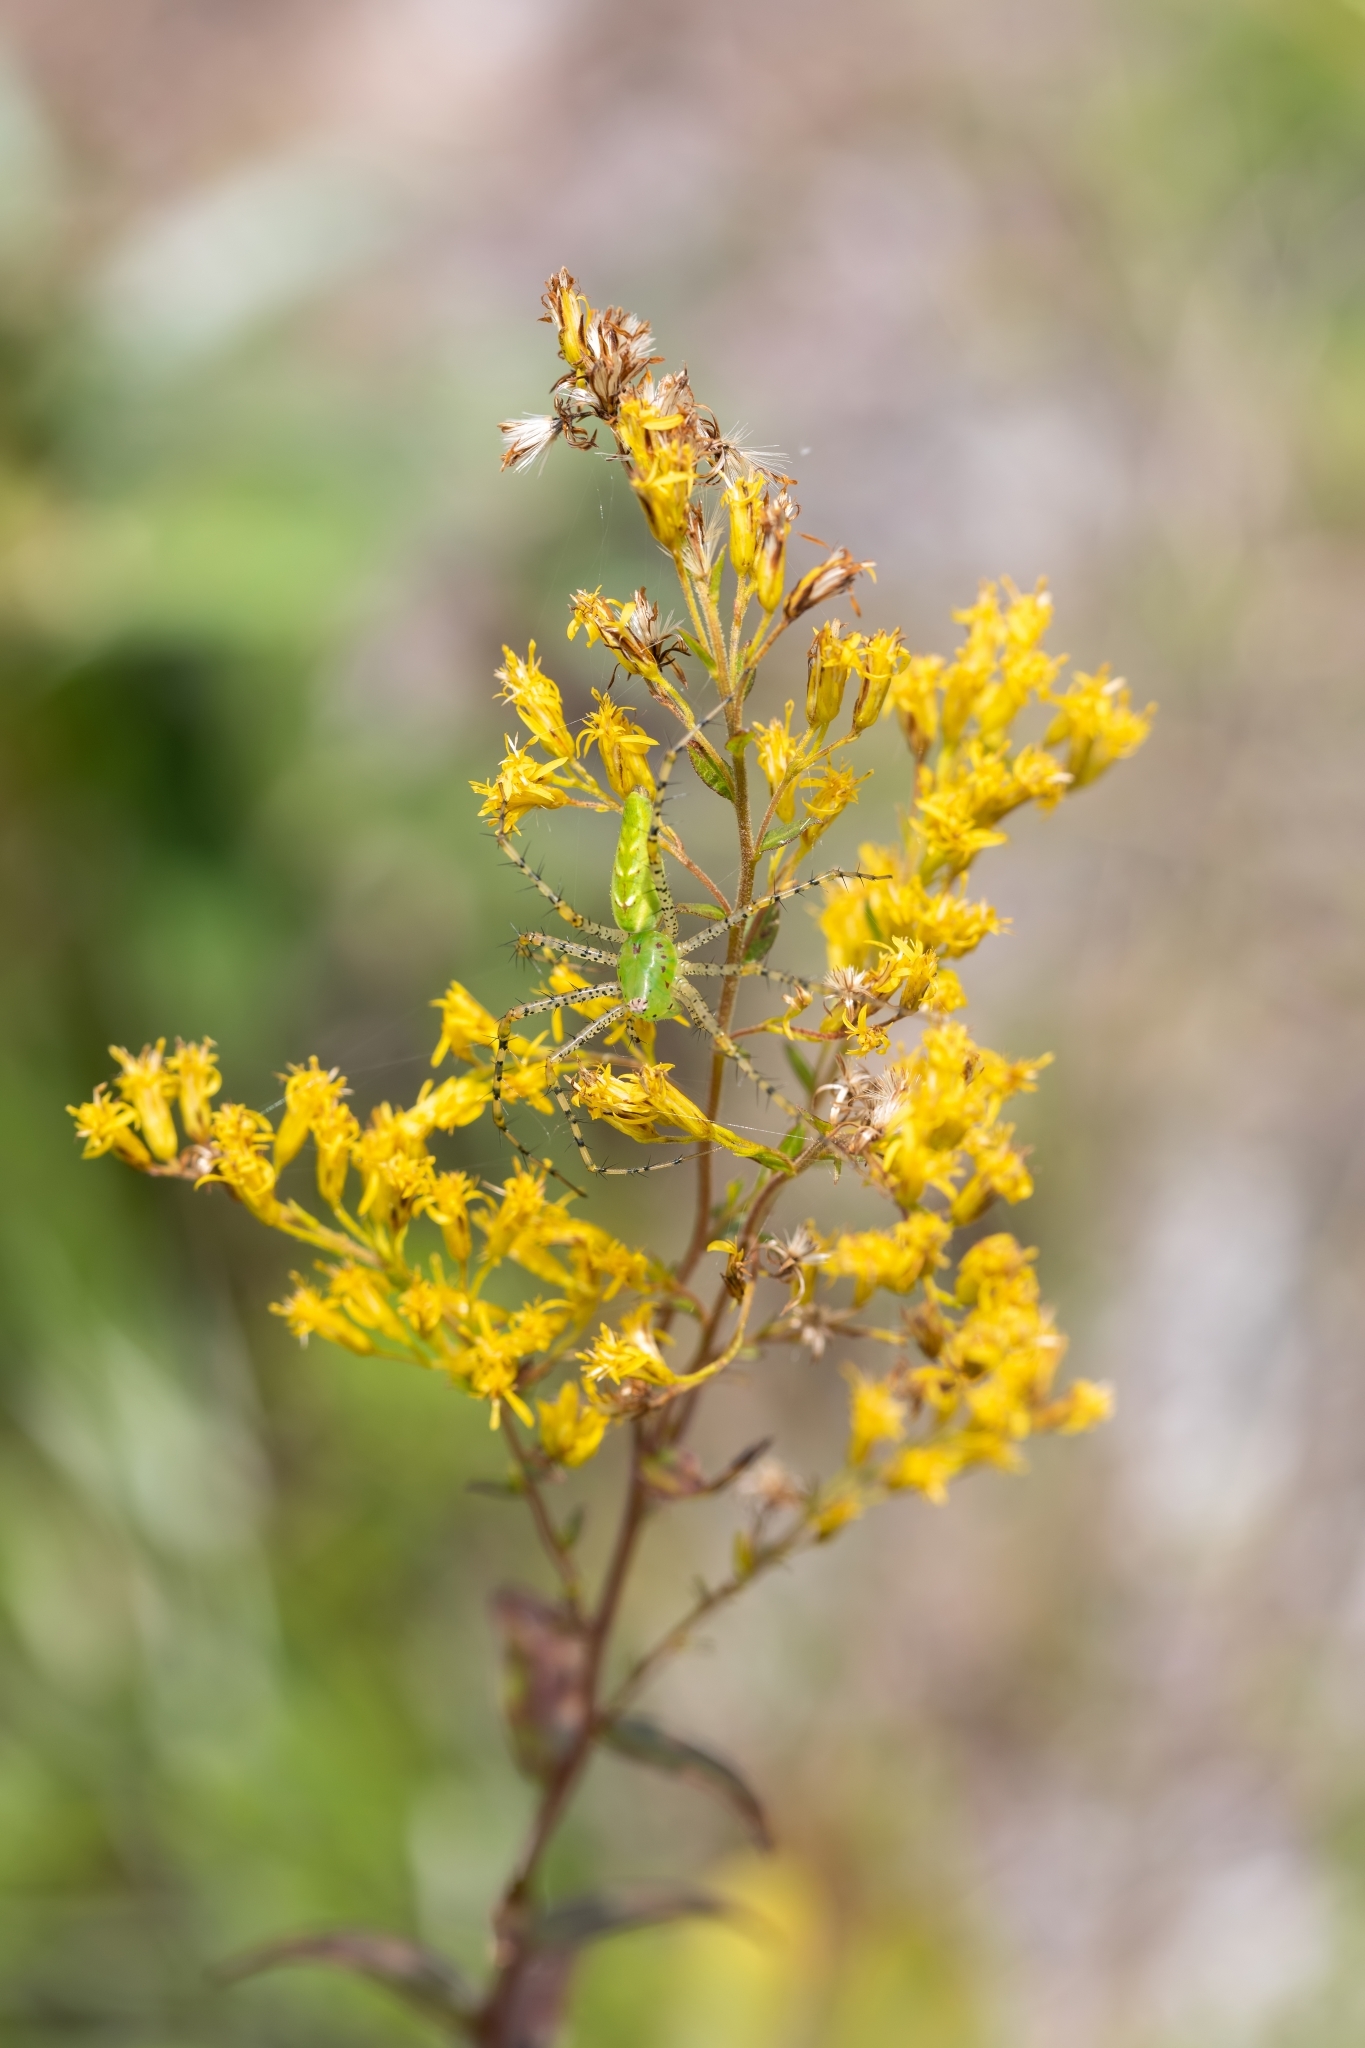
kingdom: Animalia
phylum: Arthropoda
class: Arachnida
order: Araneae
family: Oxyopidae
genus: Peucetia
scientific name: Peucetia viridans
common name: Lynx spiders
